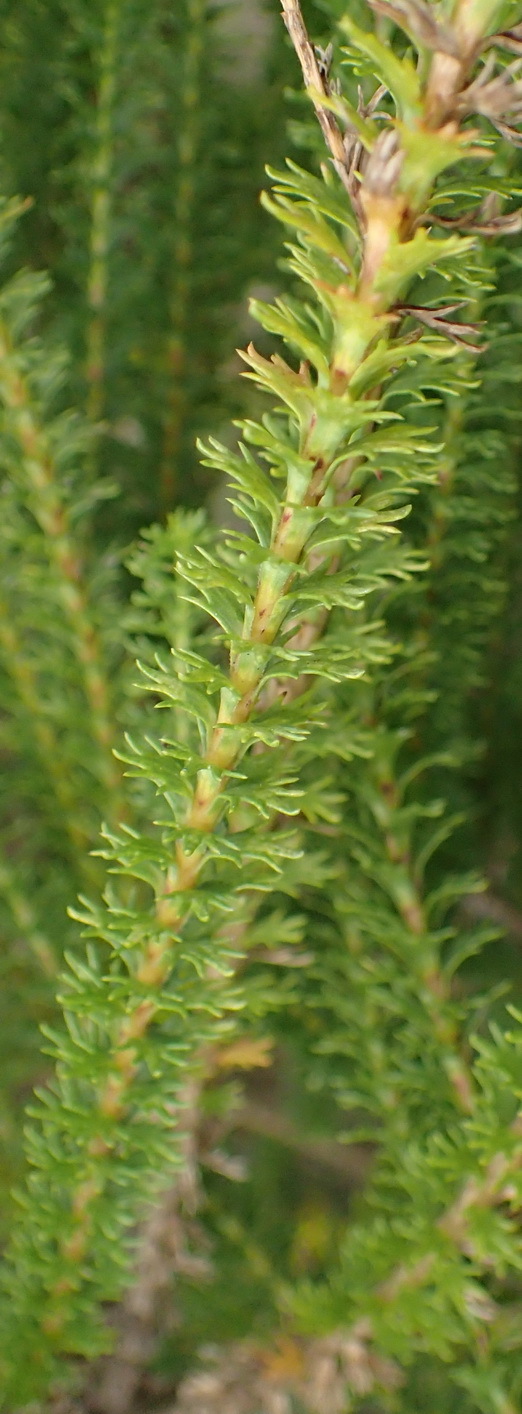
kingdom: Plantae
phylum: Tracheophyta
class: Magnoliopsida
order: Asterales
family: Asteraceae
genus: Euryops
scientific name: Euryops virgineus
